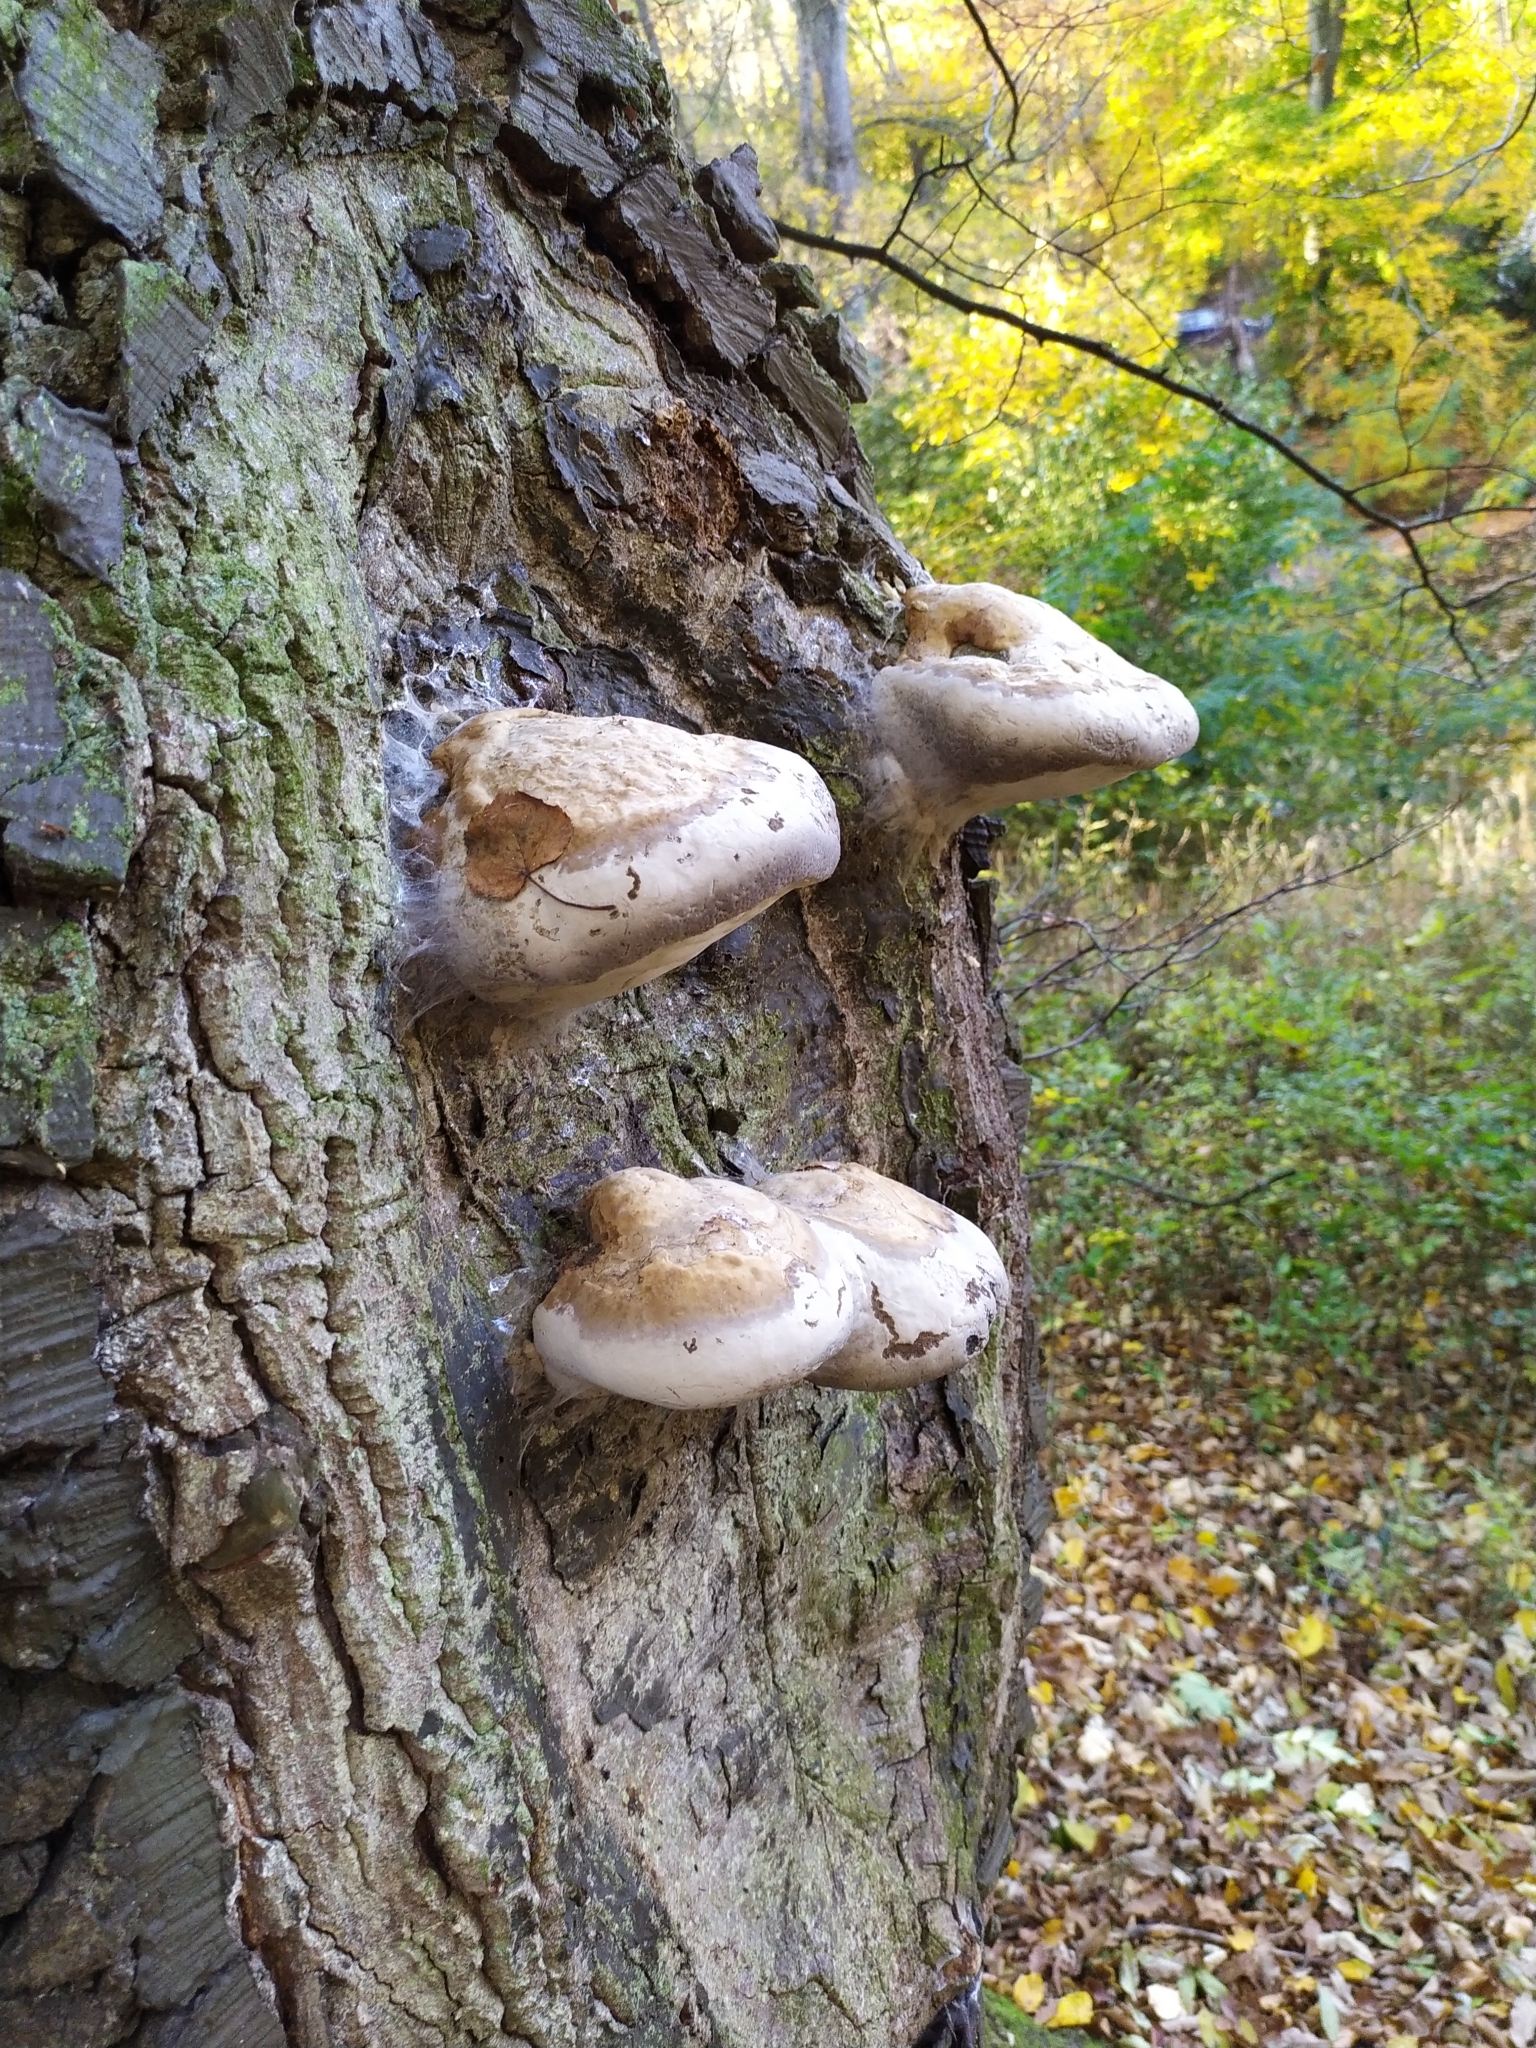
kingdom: Fungi
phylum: Basidiomycota
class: Agaricomycetes
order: Polyporales
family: Polyporaceae
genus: Fomes
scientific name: Fomes fomentarius
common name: Hoof fungus
